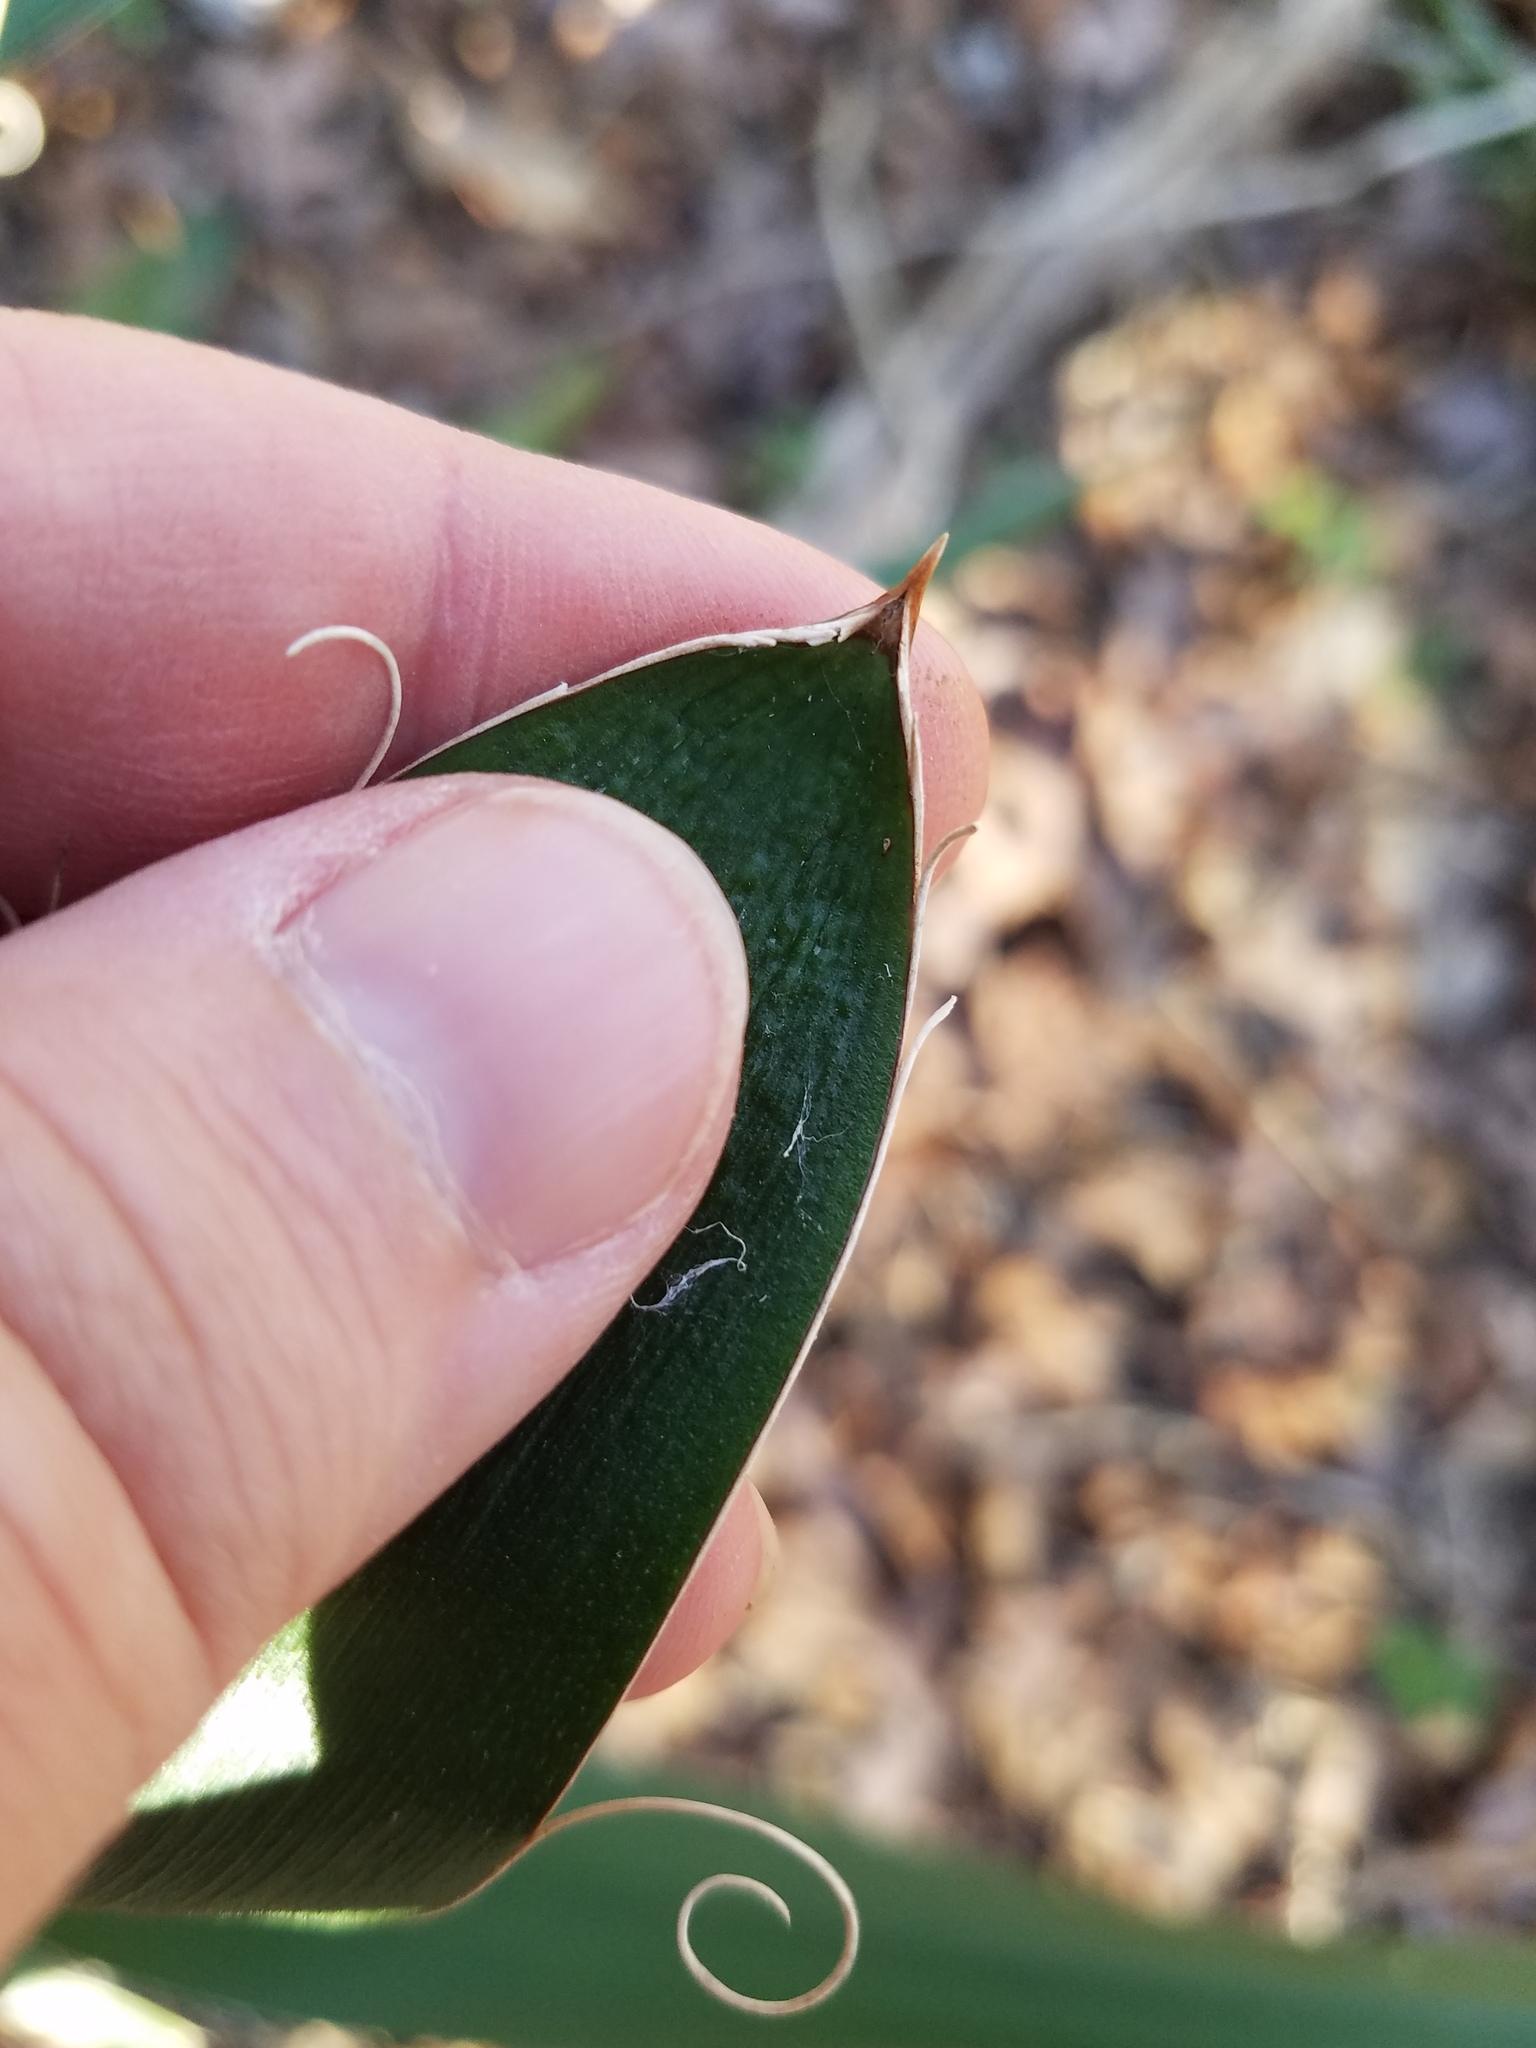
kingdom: Plantae
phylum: Tracheophyta
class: Liliopsida
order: Asparagales
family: Asparagaceae
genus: Yucca
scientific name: Yucca filamentosa
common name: Adam's-needle
